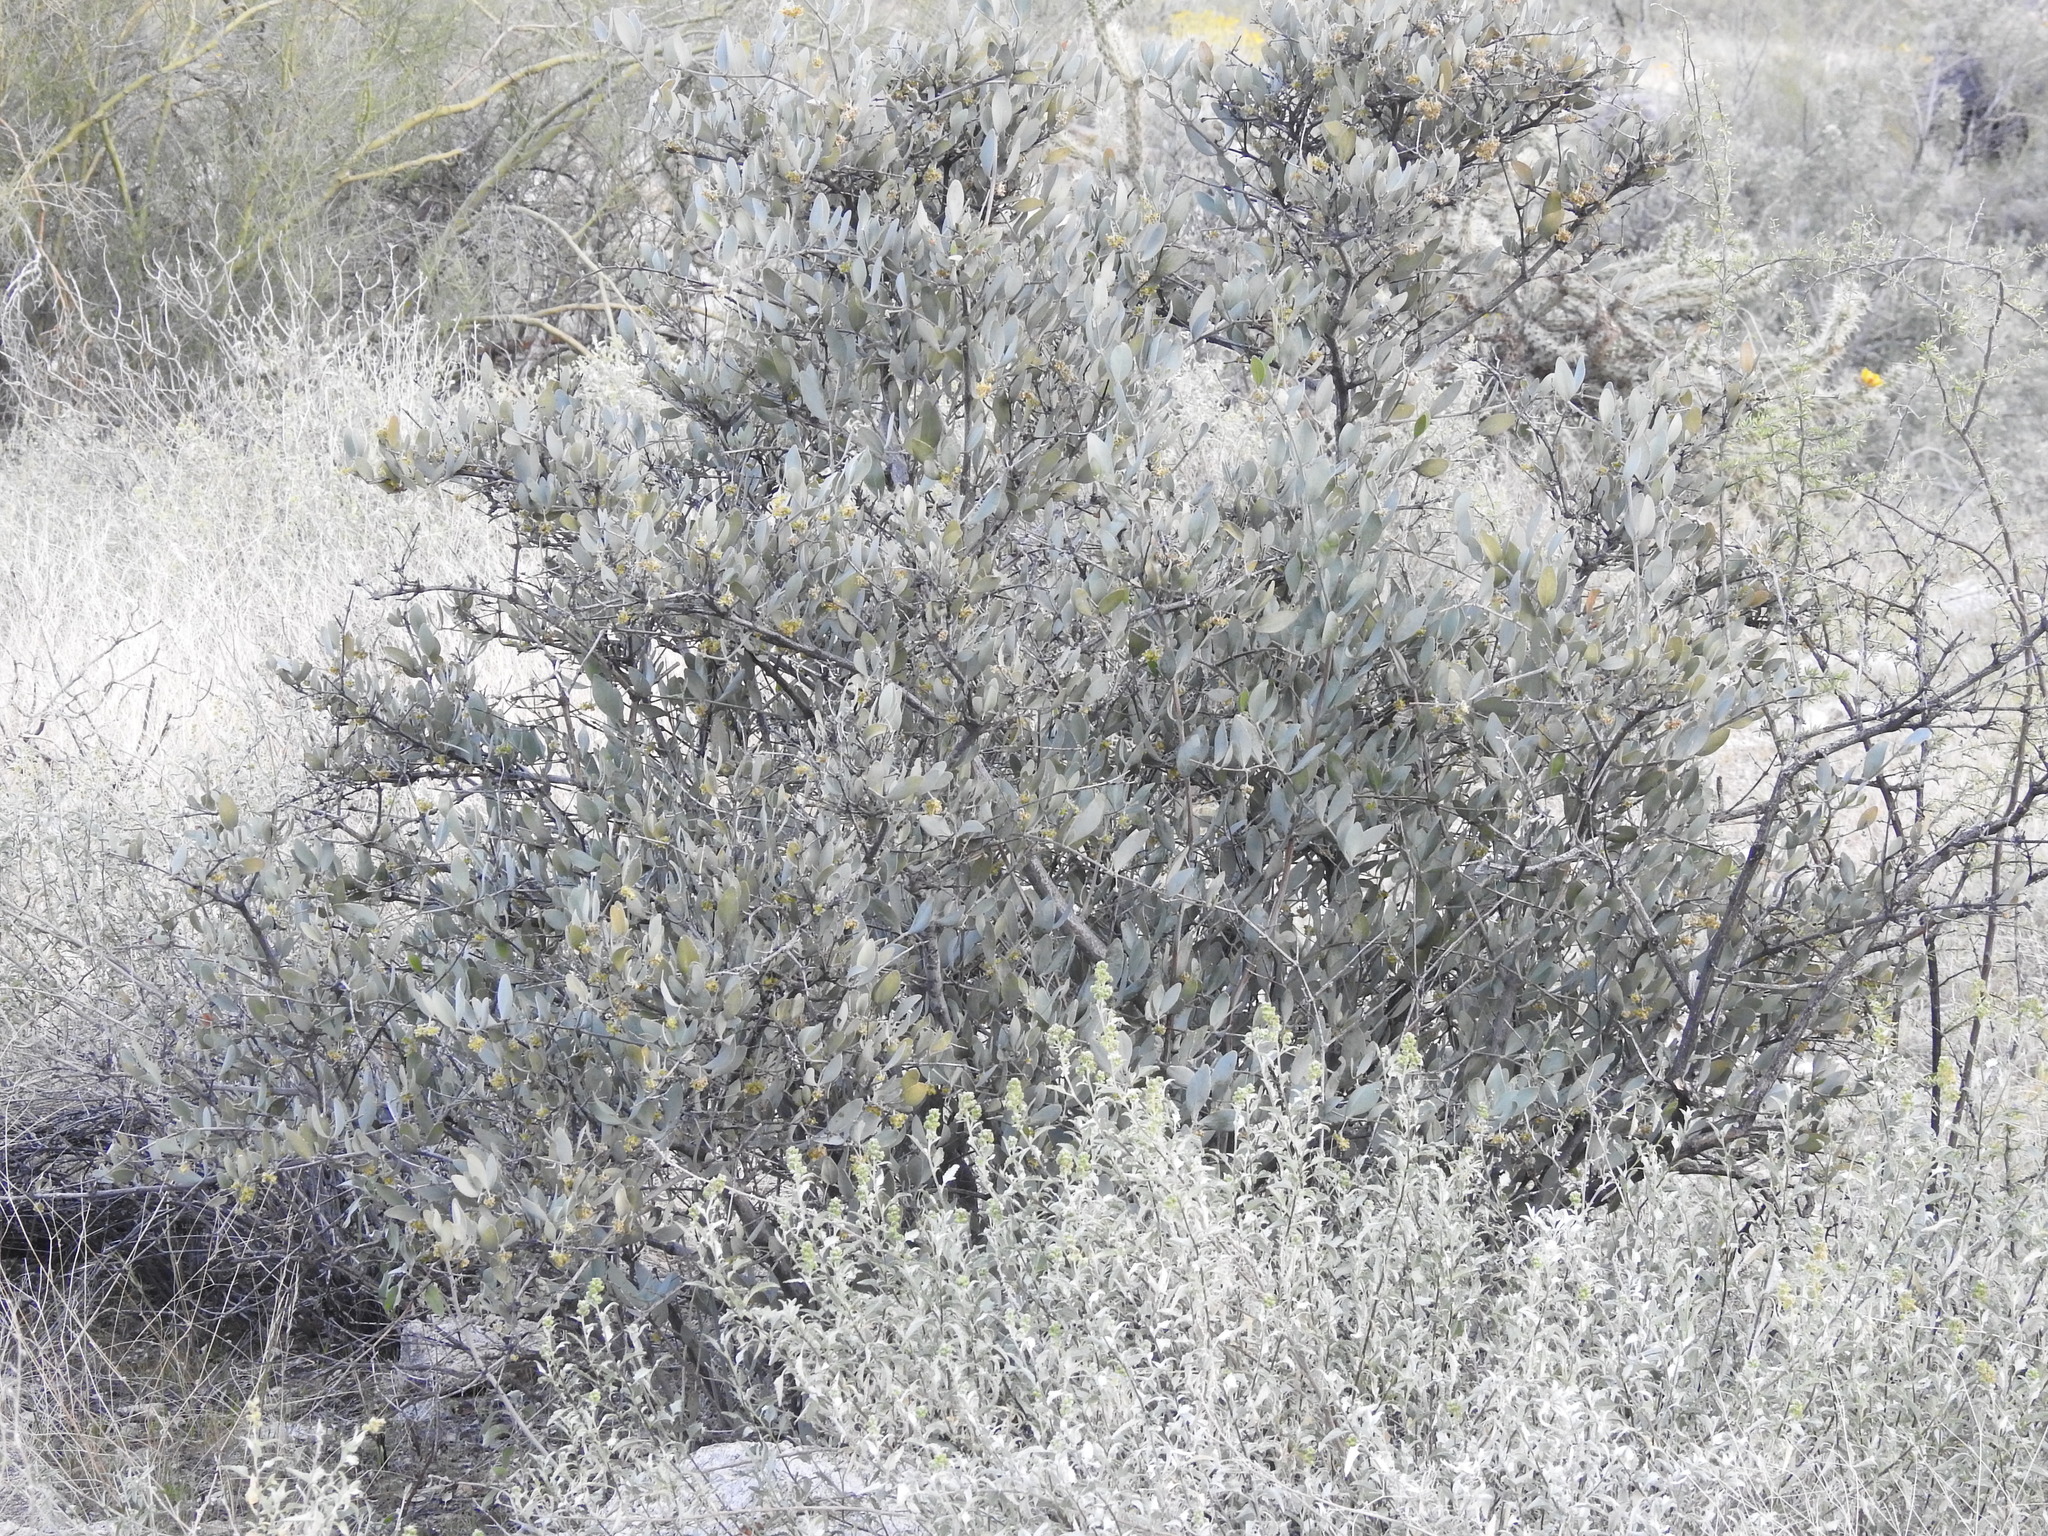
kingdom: Plantae
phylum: Tracheophyta
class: Magnoliopsida
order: Caryophyllales
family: Simmondsiaceae
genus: Simmondsia
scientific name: Simmondsia chinensis
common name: Jojoba
